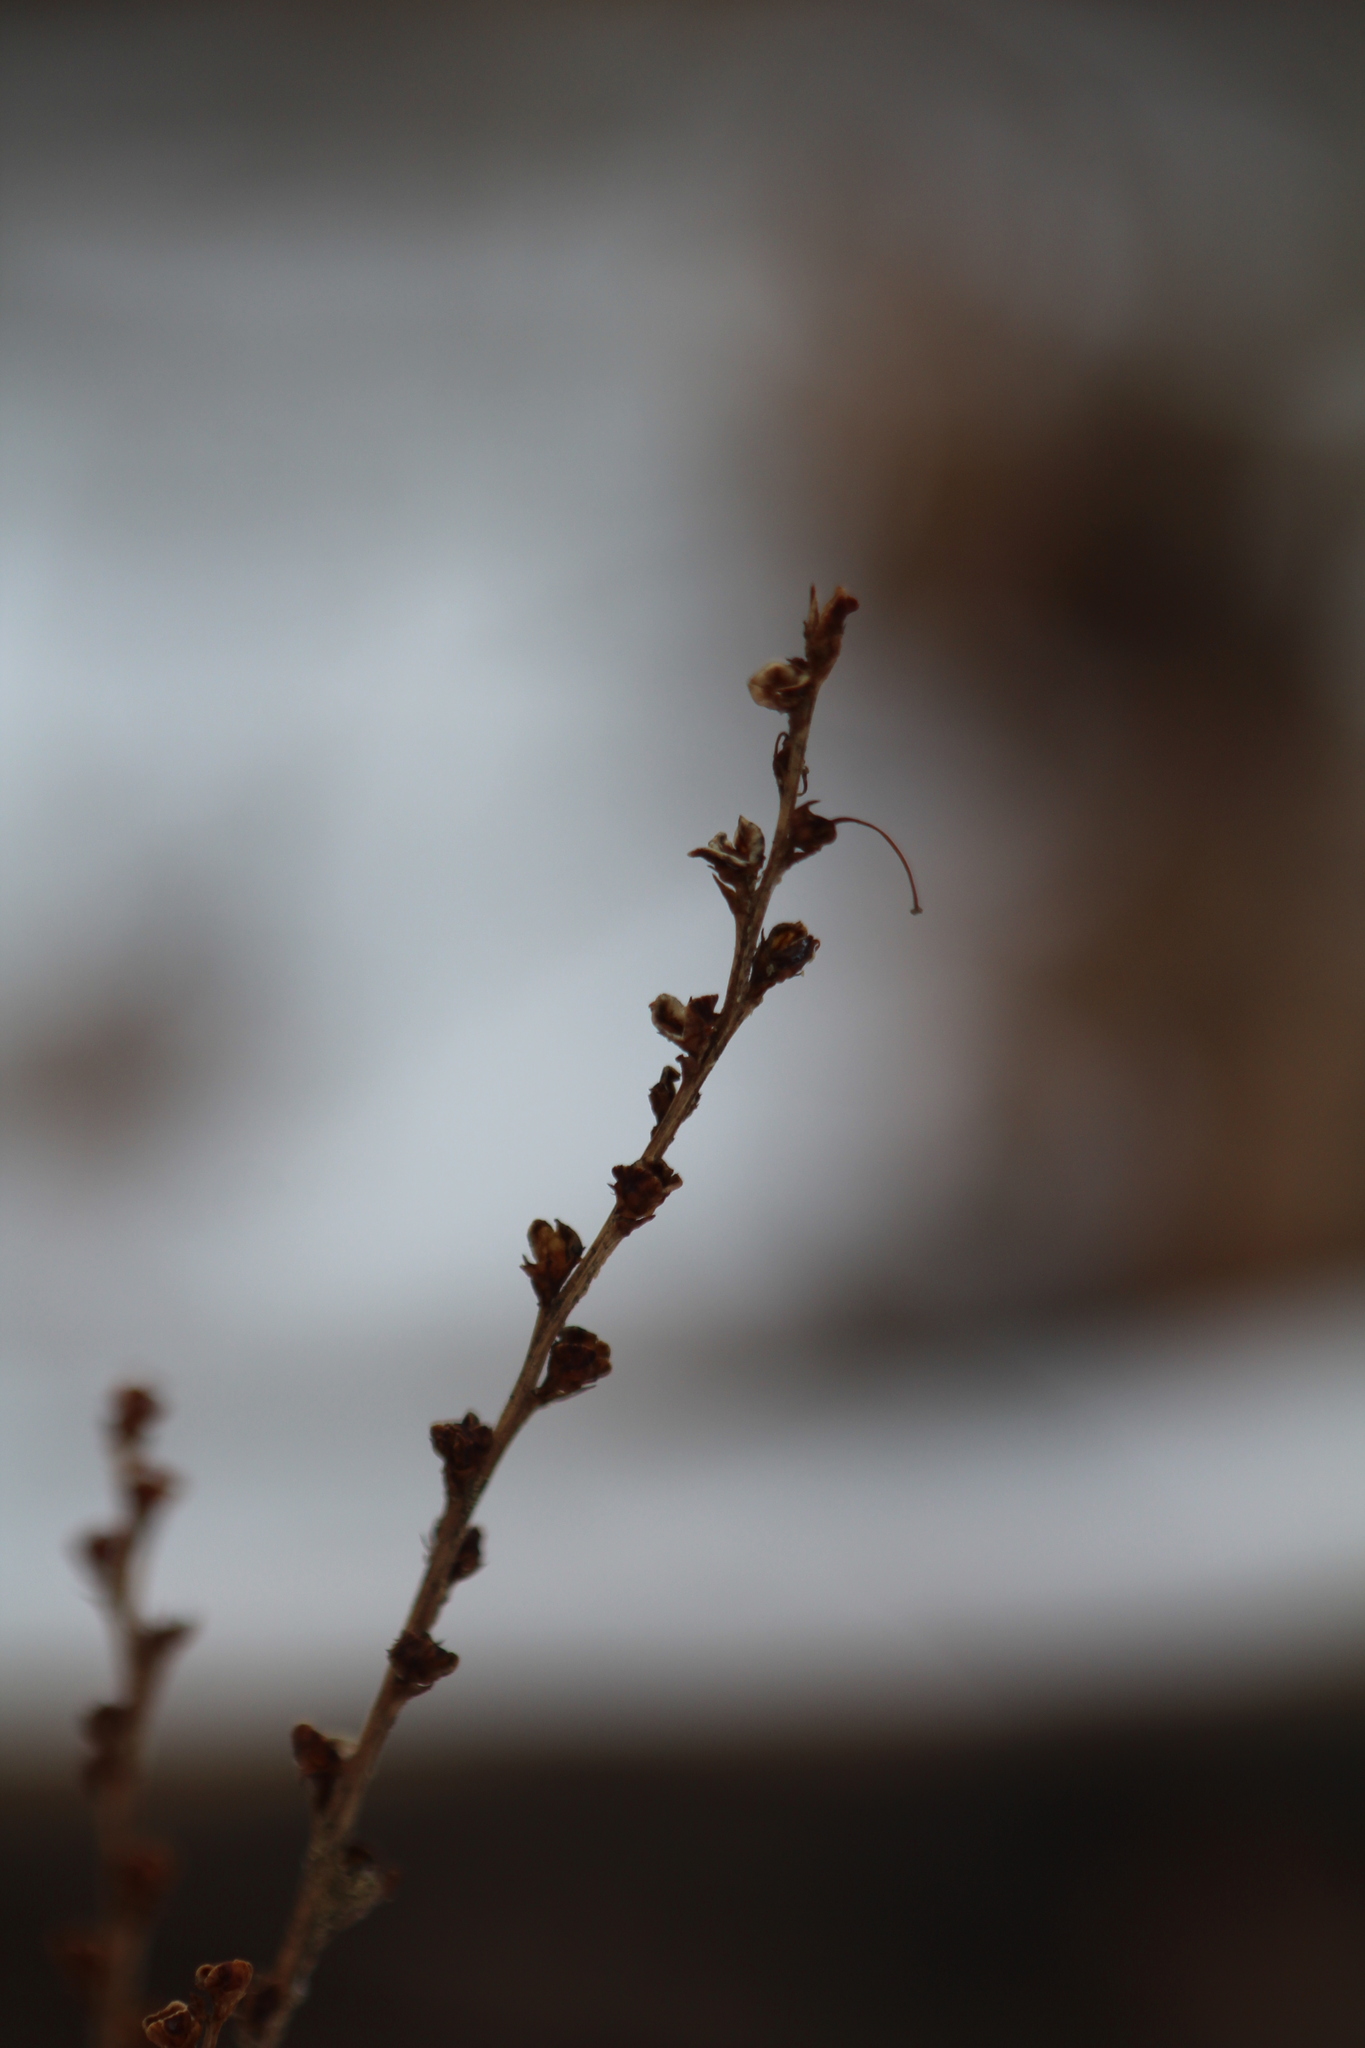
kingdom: Plantae
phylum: Tracheophyta
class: Magnoliopsida
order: Lamiales
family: Orobanchaceae
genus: Epifagus
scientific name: Epifagus virginiana
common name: Beechdrops
